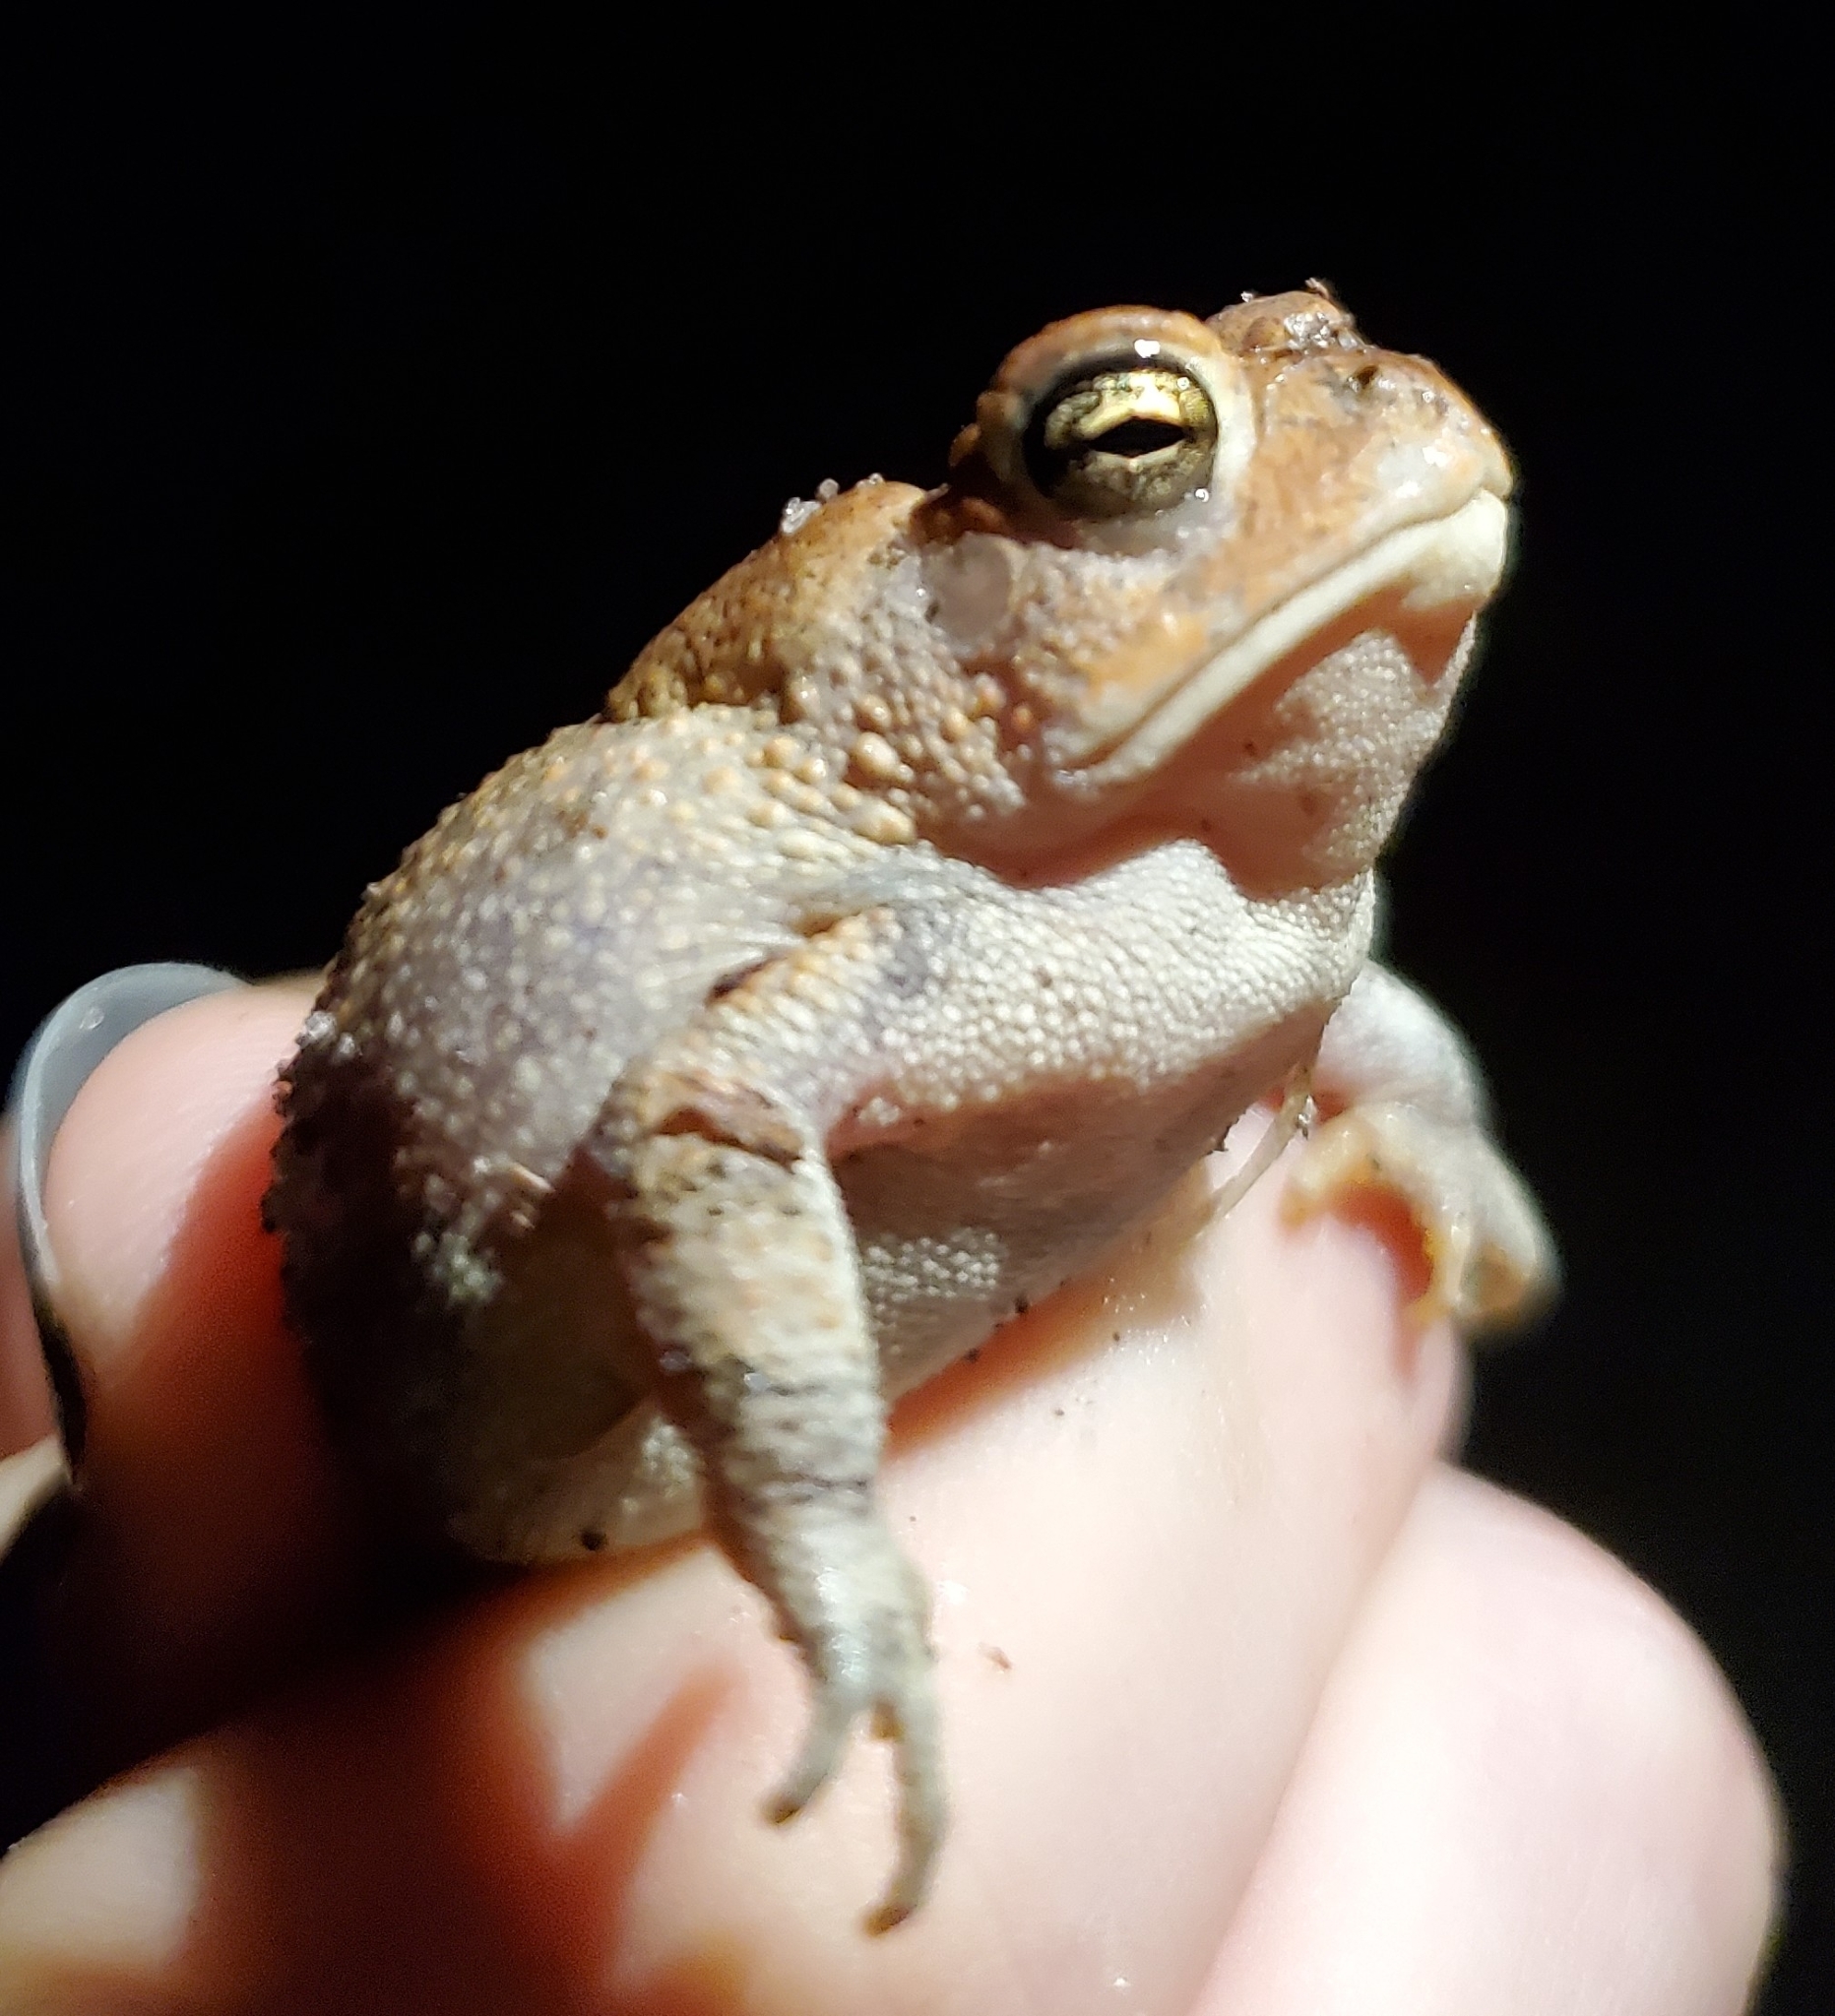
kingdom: Animalia
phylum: Chordata
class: Amphibia
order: Anura
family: Bufonidae
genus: Anaxyrus
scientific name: Anaxyrus terrestris
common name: Southern toad
